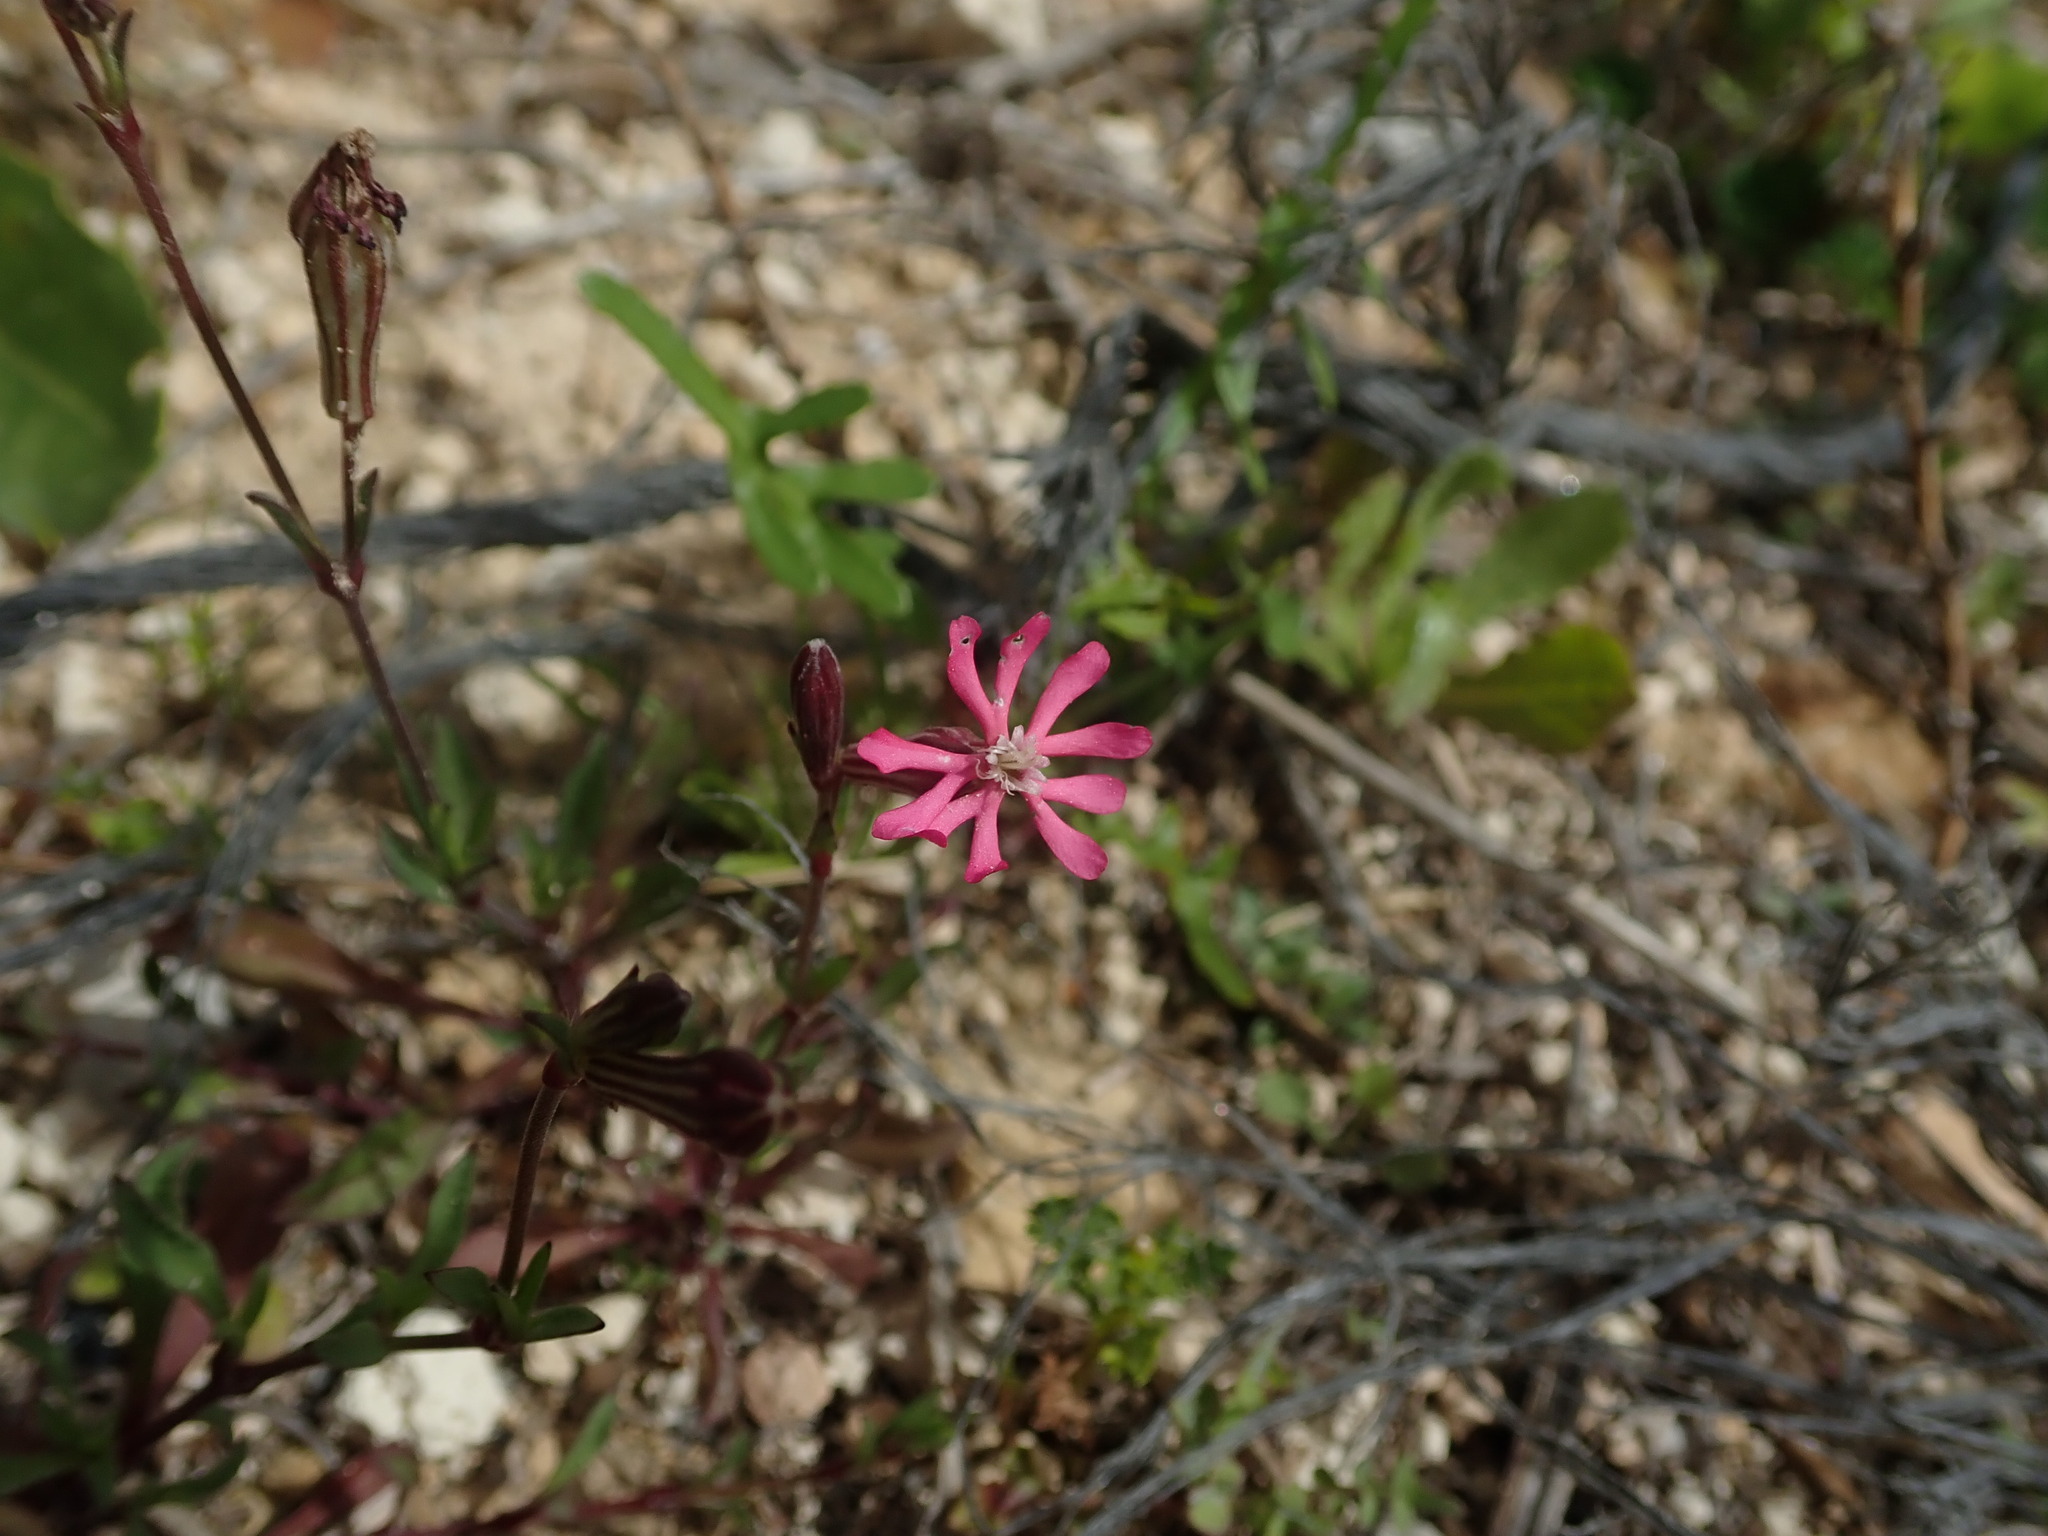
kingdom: Plantae
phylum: Tracheophyta
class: Magnoliopsida
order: Caryophyllales
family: Caryophyllaceae
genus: Silene
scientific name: Silene melitensis
